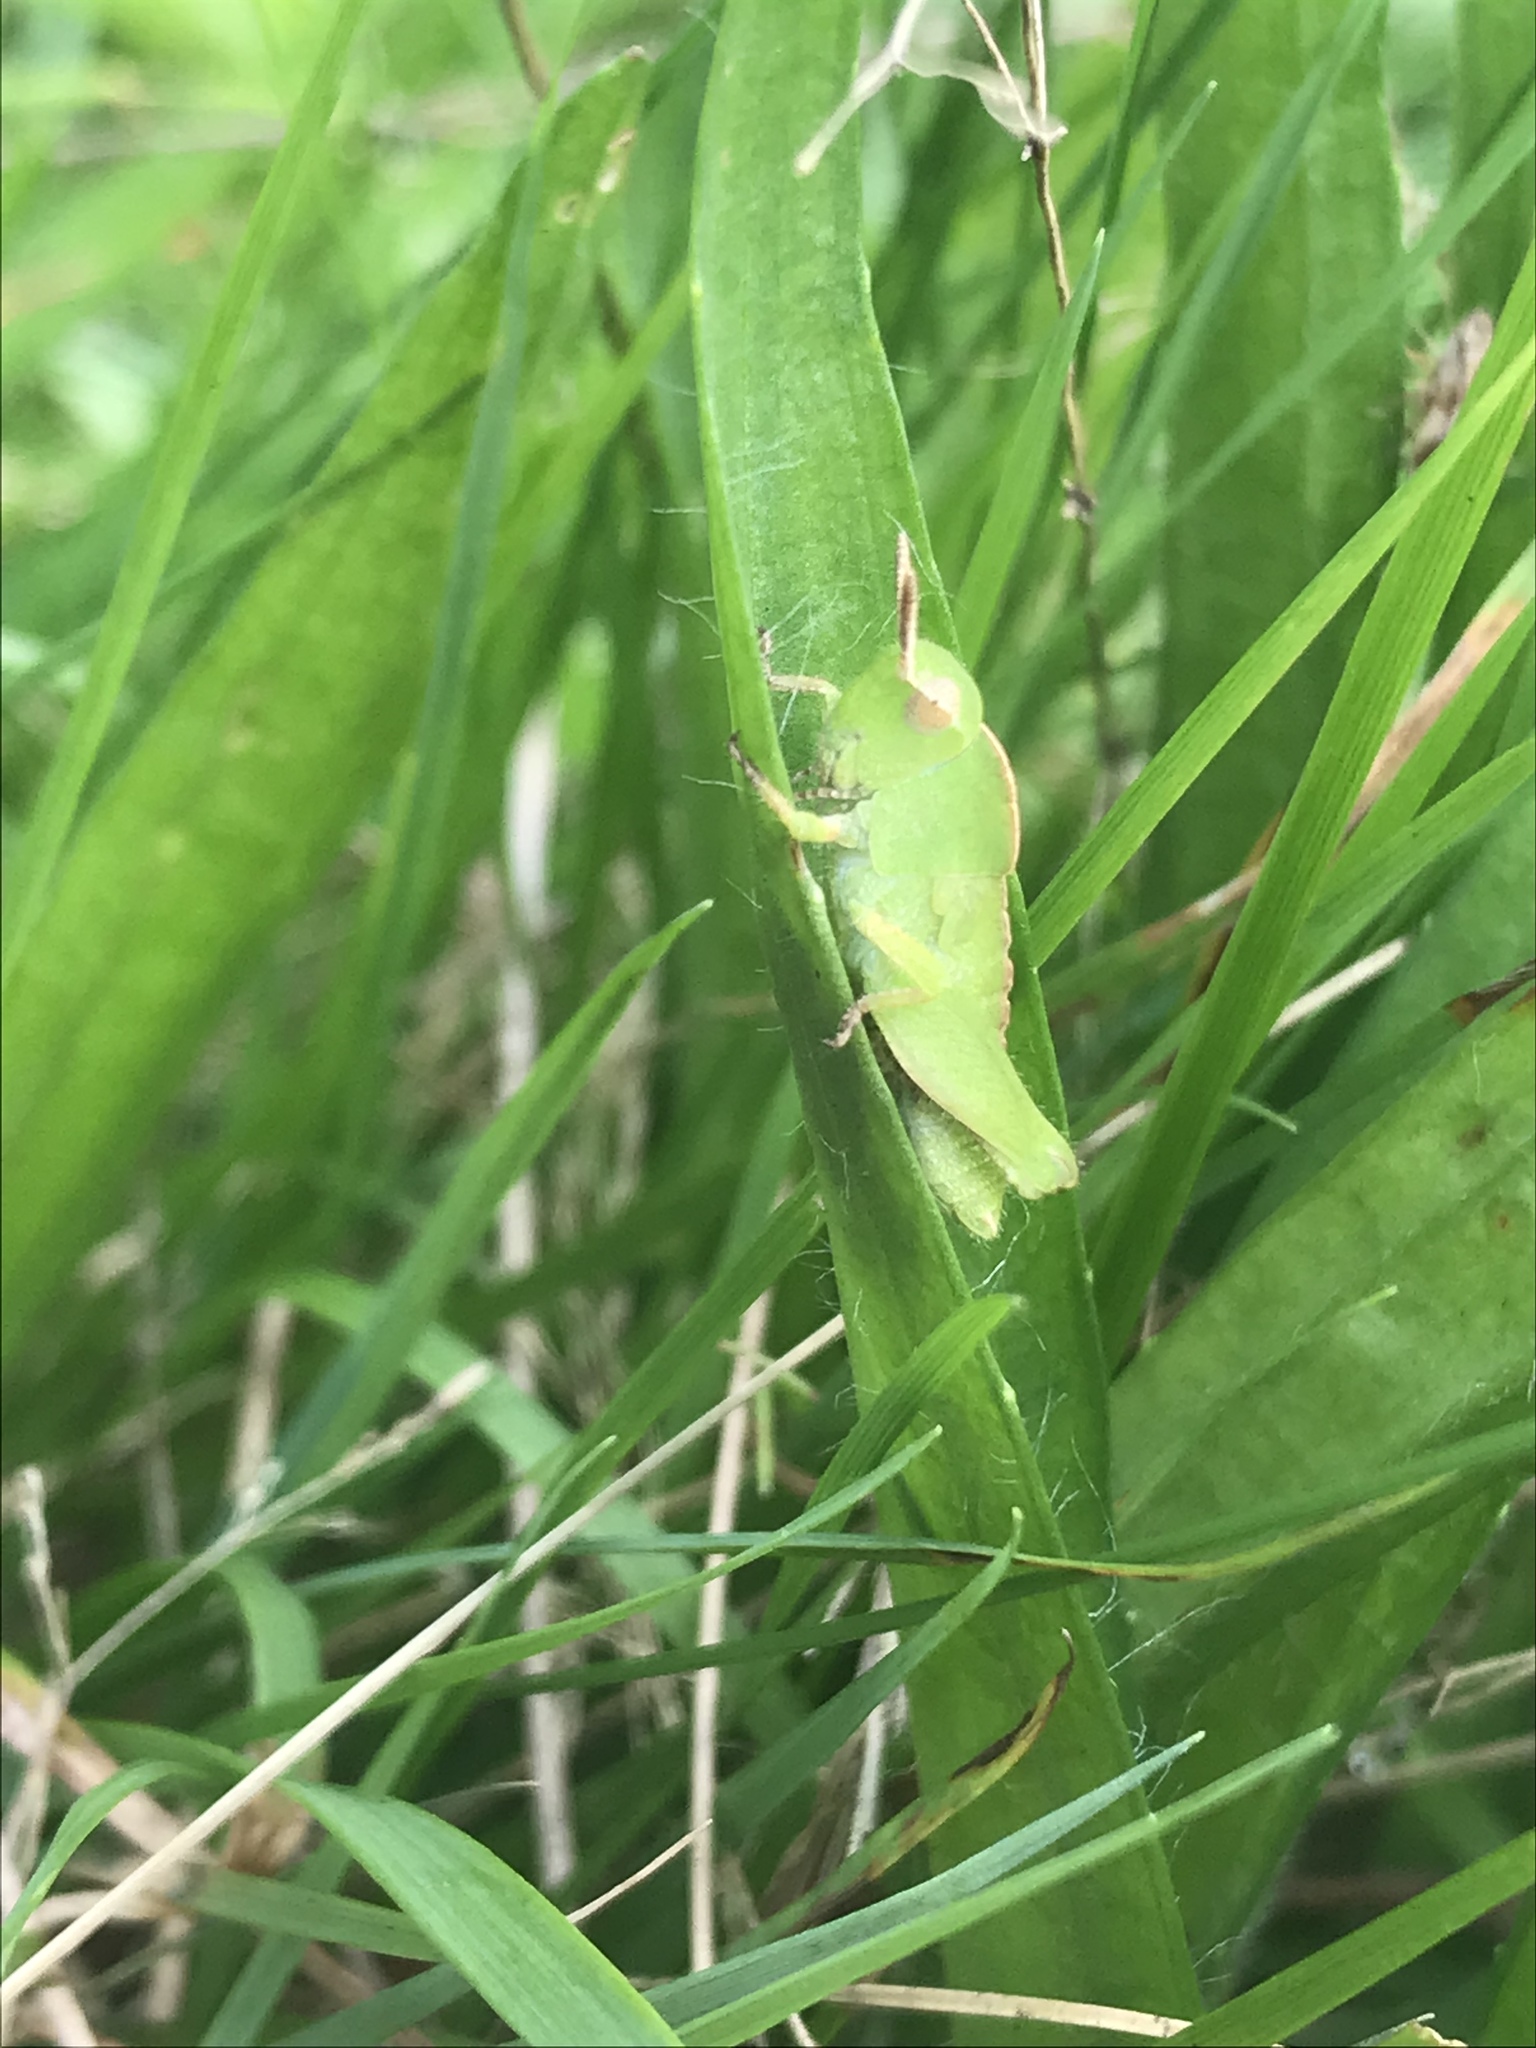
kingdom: Animalia
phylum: Arthropoda
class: Insecta
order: Orthoptera
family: Acrididae
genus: Chortophaga
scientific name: Chortophaga viridifasciata
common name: Green-striped grasshopper
